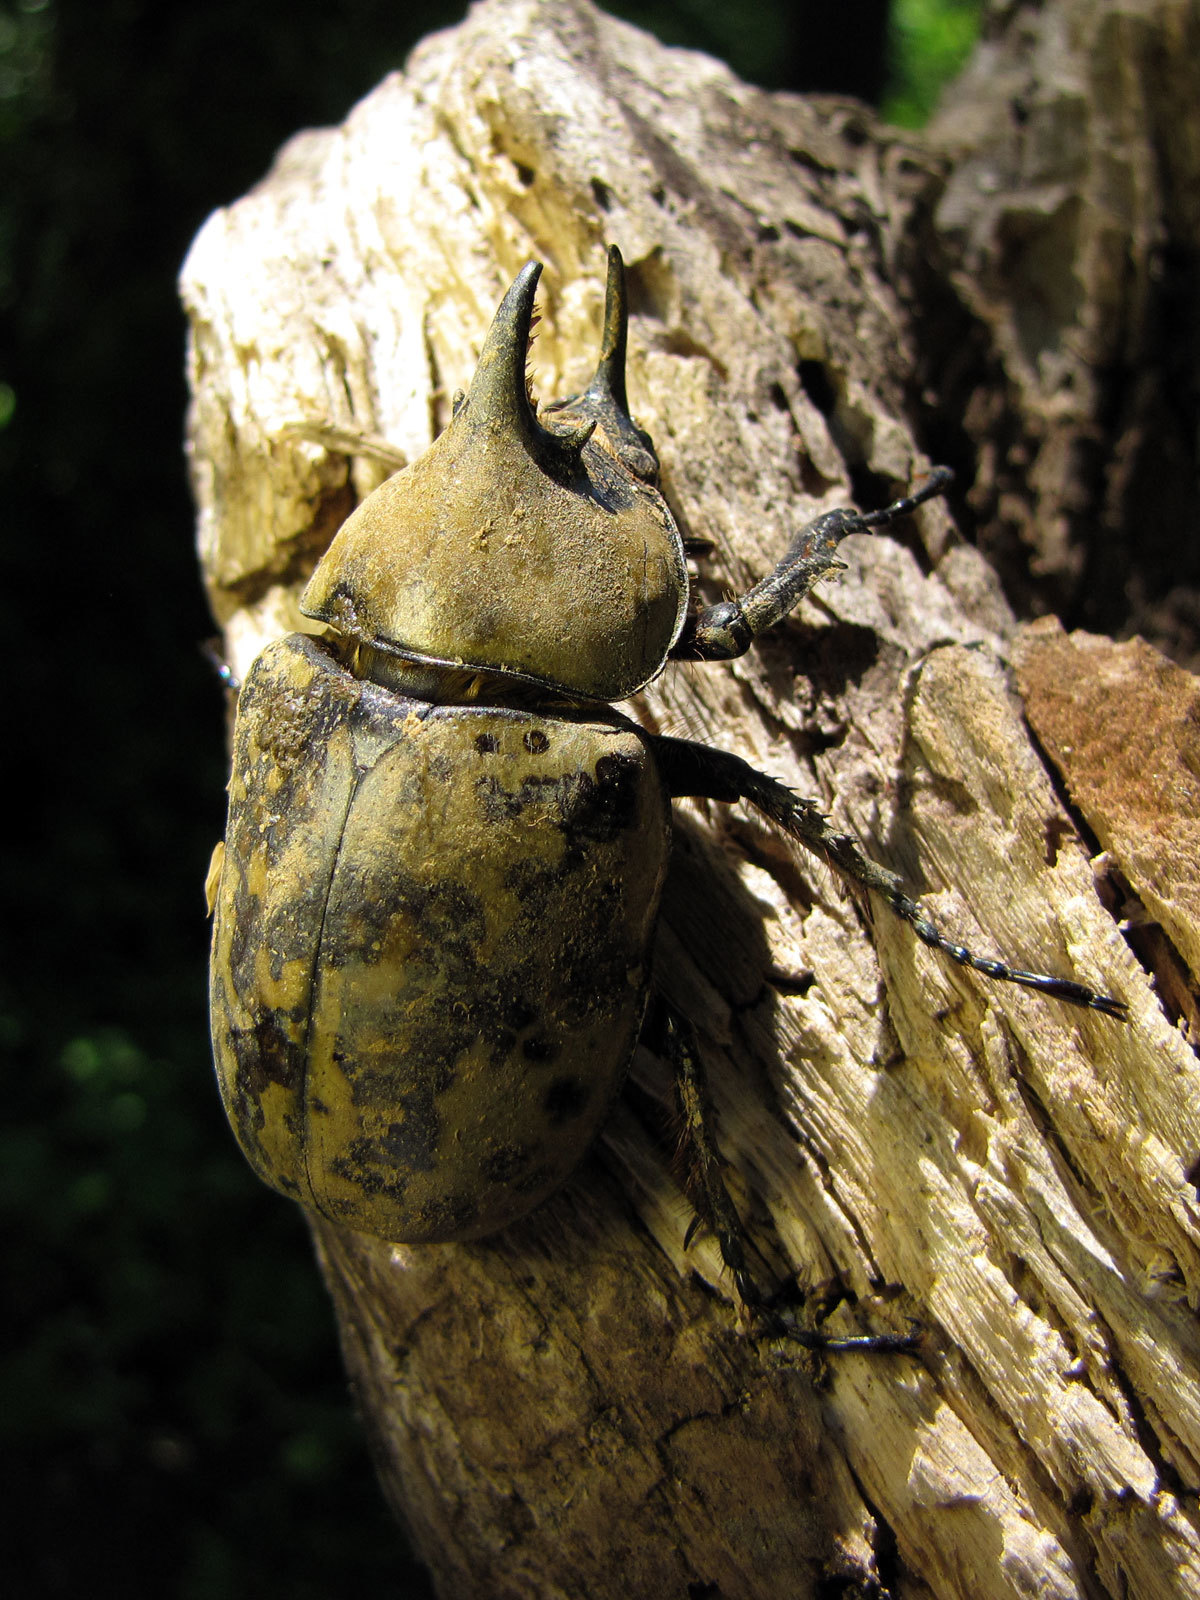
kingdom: Animalia
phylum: Arthropoda
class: Insecta
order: Coleoptera
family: Scarabaeidae
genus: Dynastes
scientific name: Dynastes tityus
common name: Eastern hercules beetle
